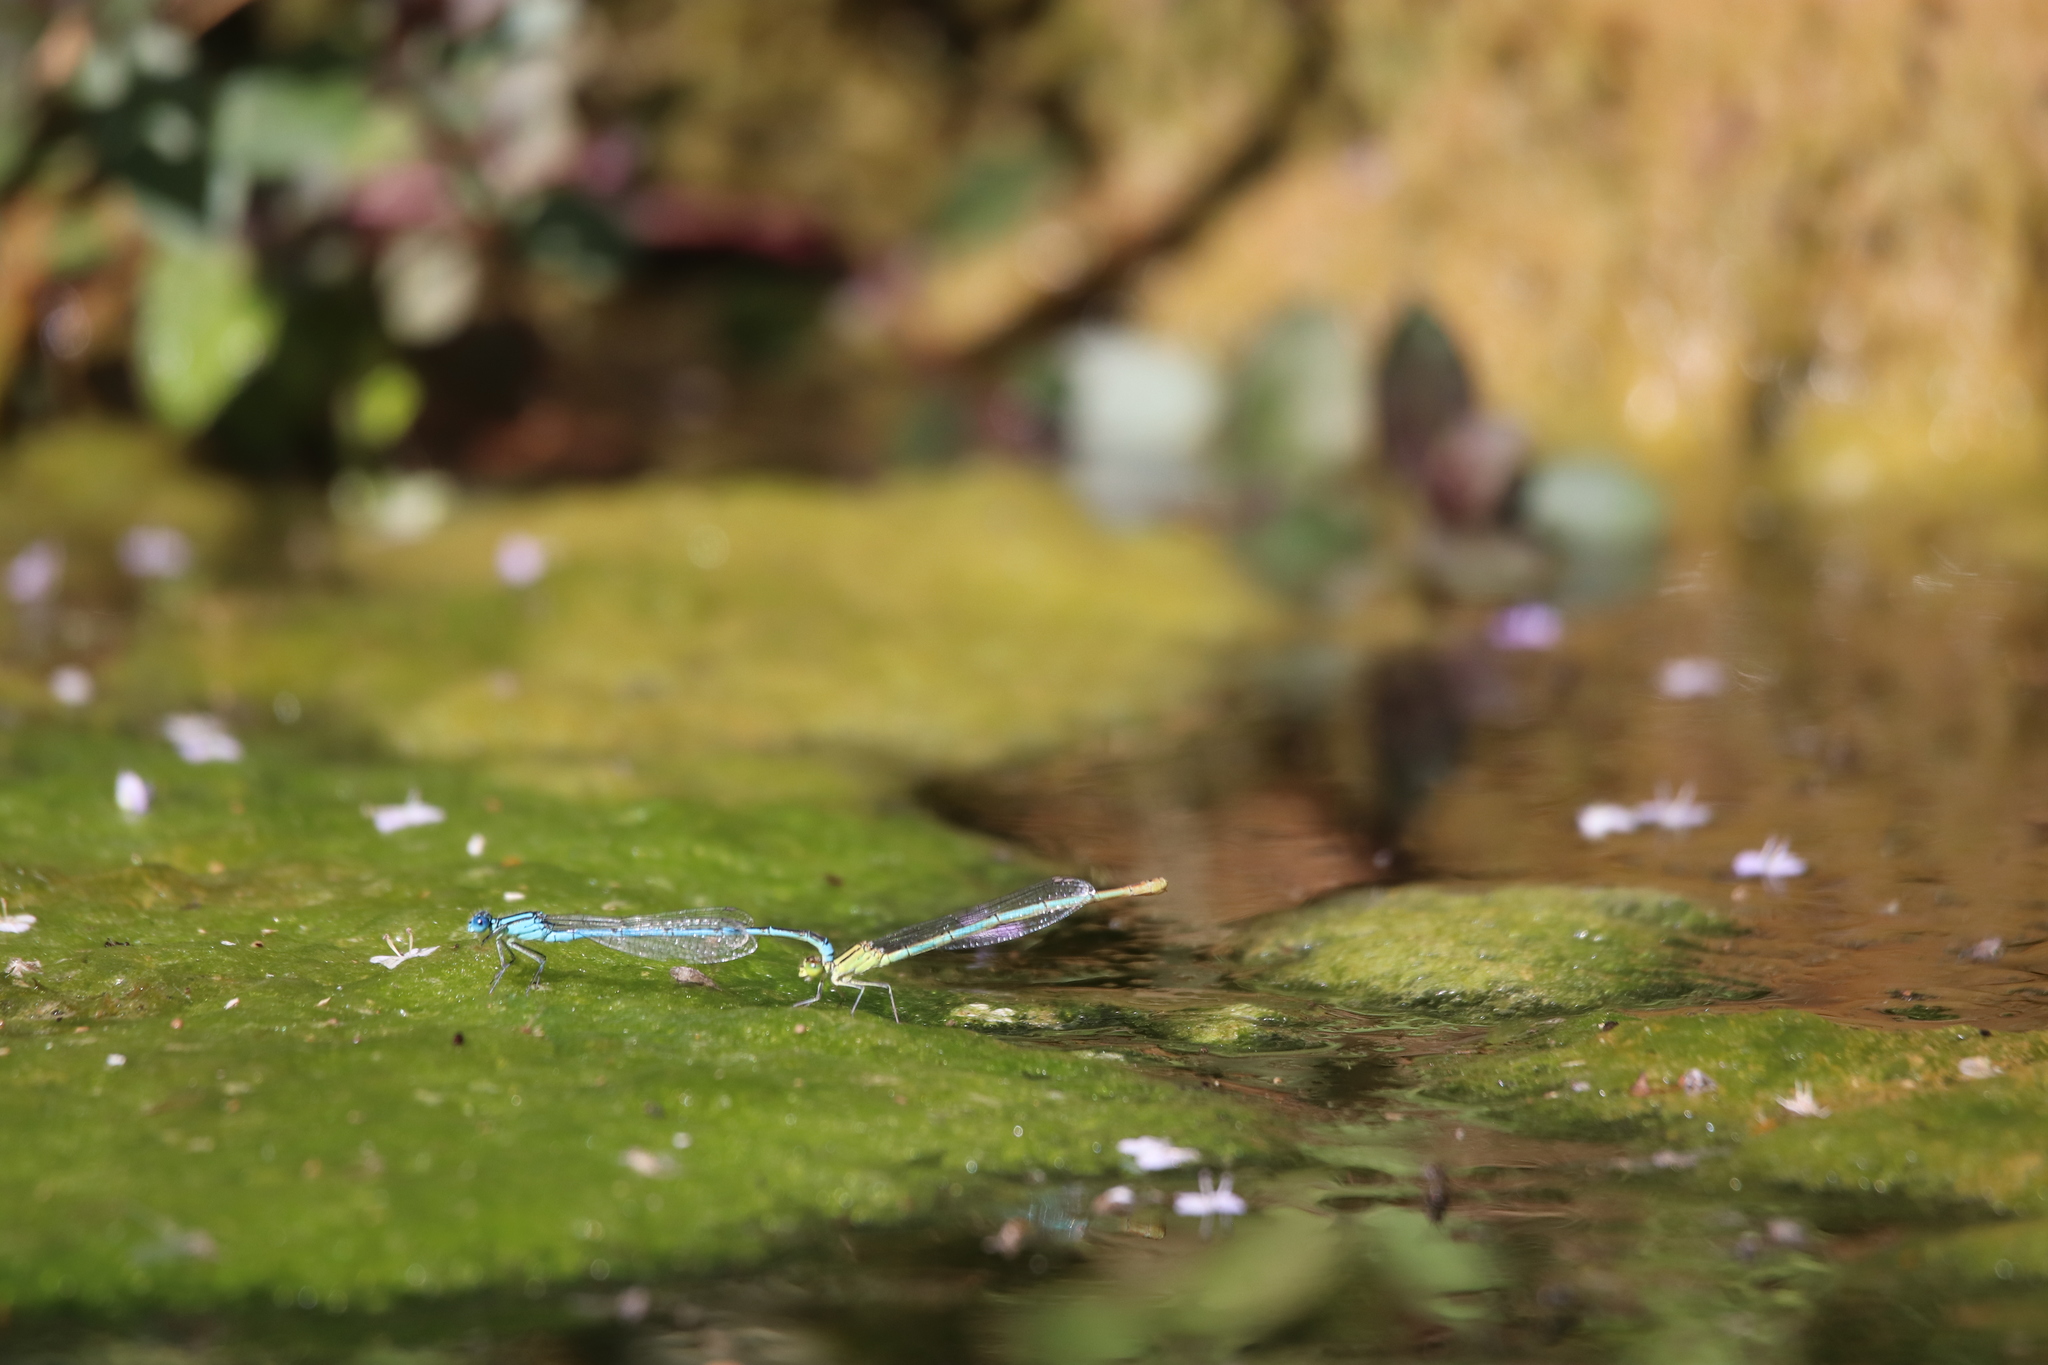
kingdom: Animalia
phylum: Arthropoda
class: Insecta
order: Odonata
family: Coenagrionidae
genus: Erythromma
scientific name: Erythromma lindenii
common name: Blue-eye
